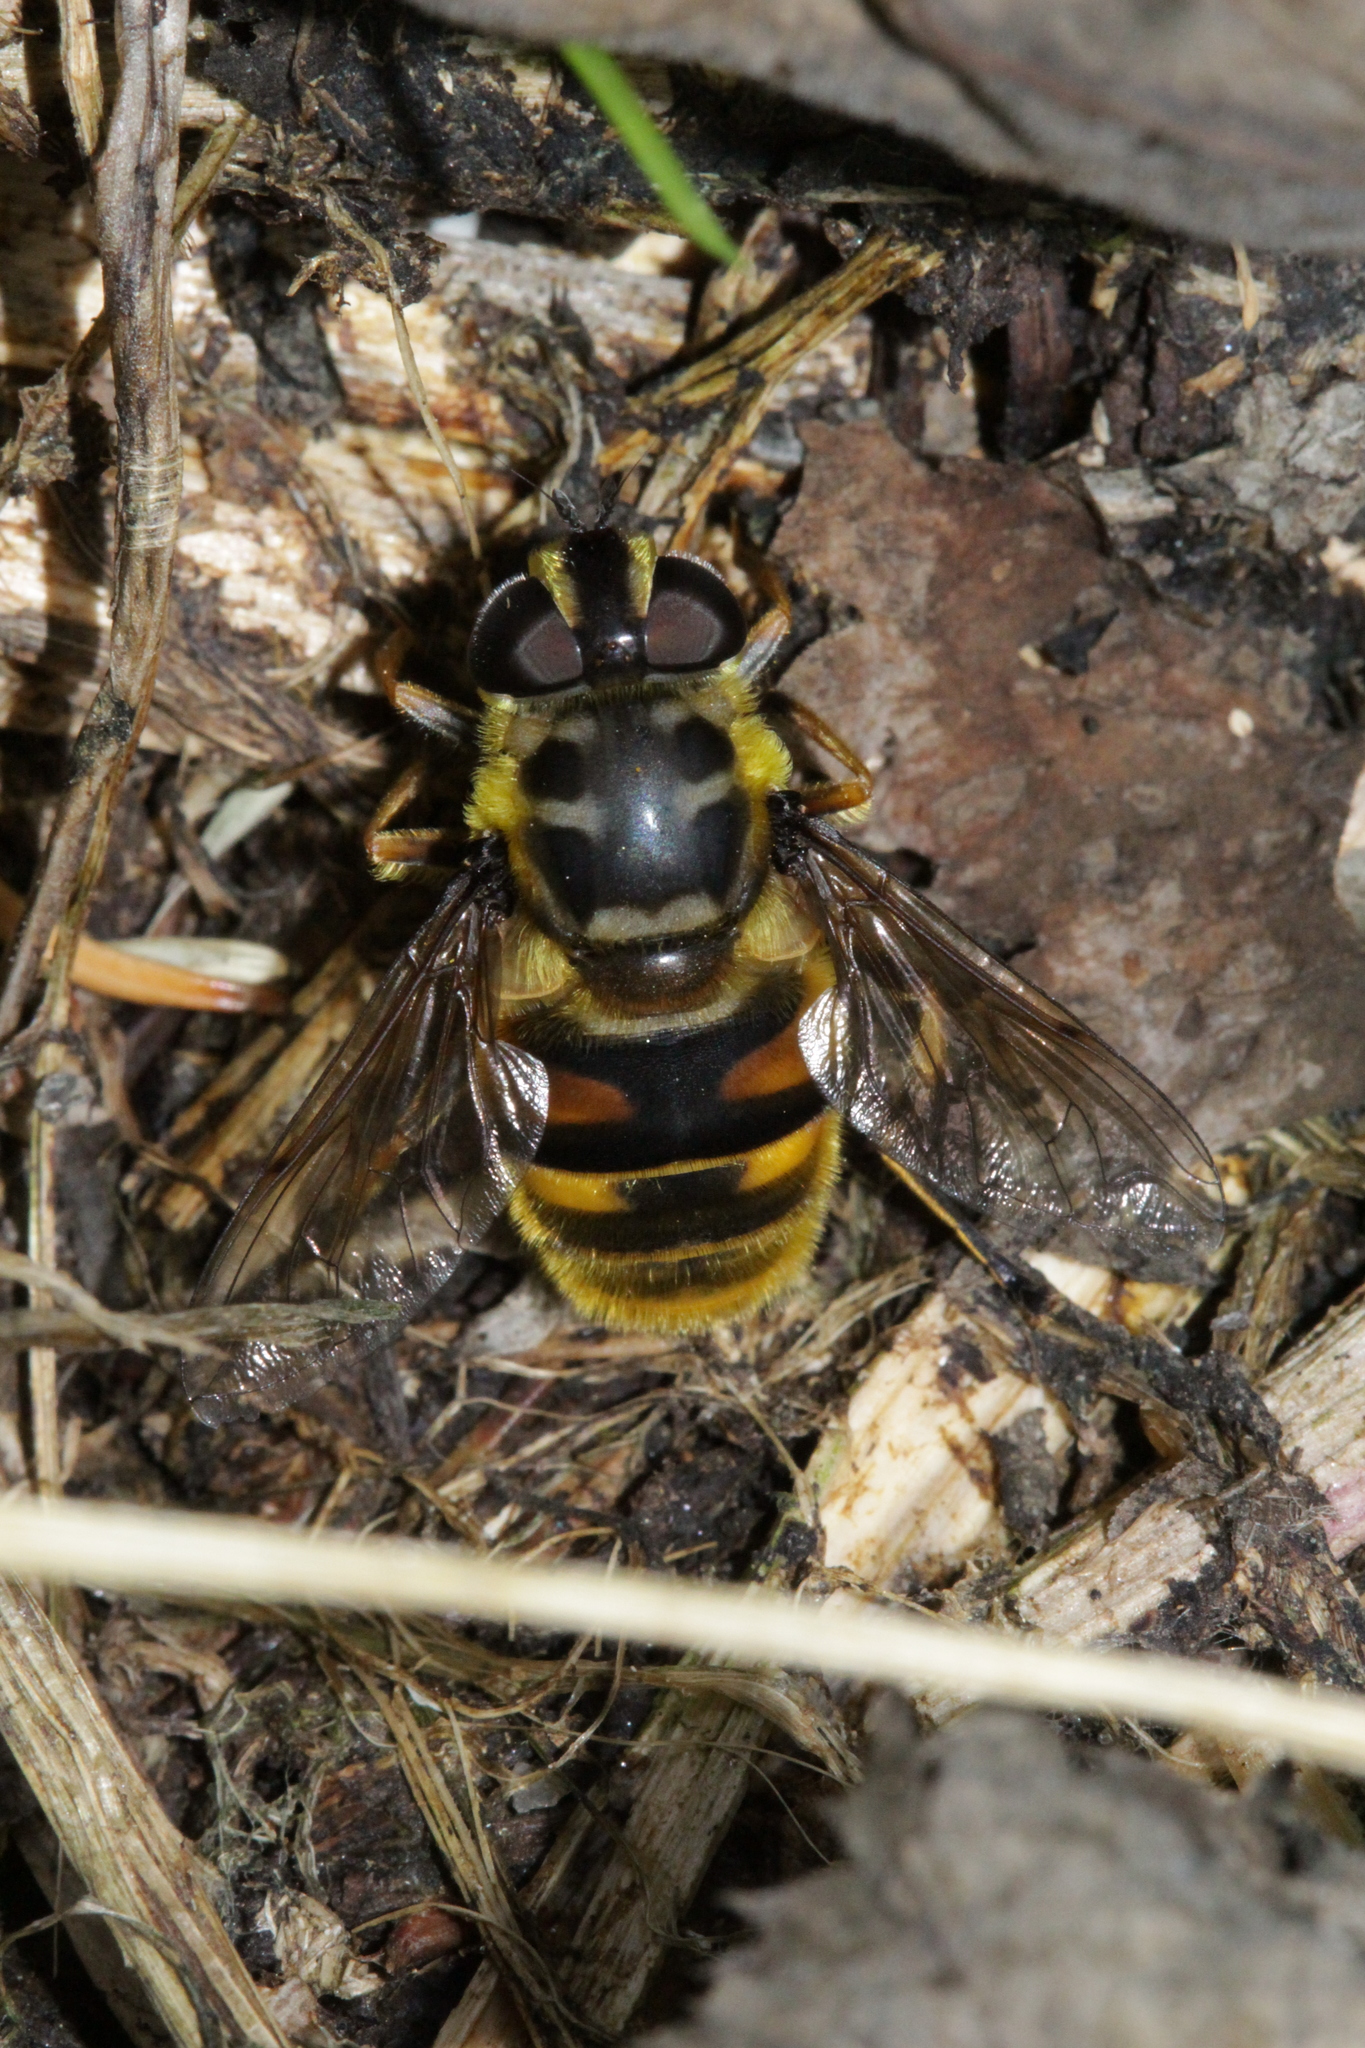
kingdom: Animalia
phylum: Arthropoda
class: Insecta
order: Diptera
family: Syrphidae
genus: Myathropa
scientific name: Myathropa florea
